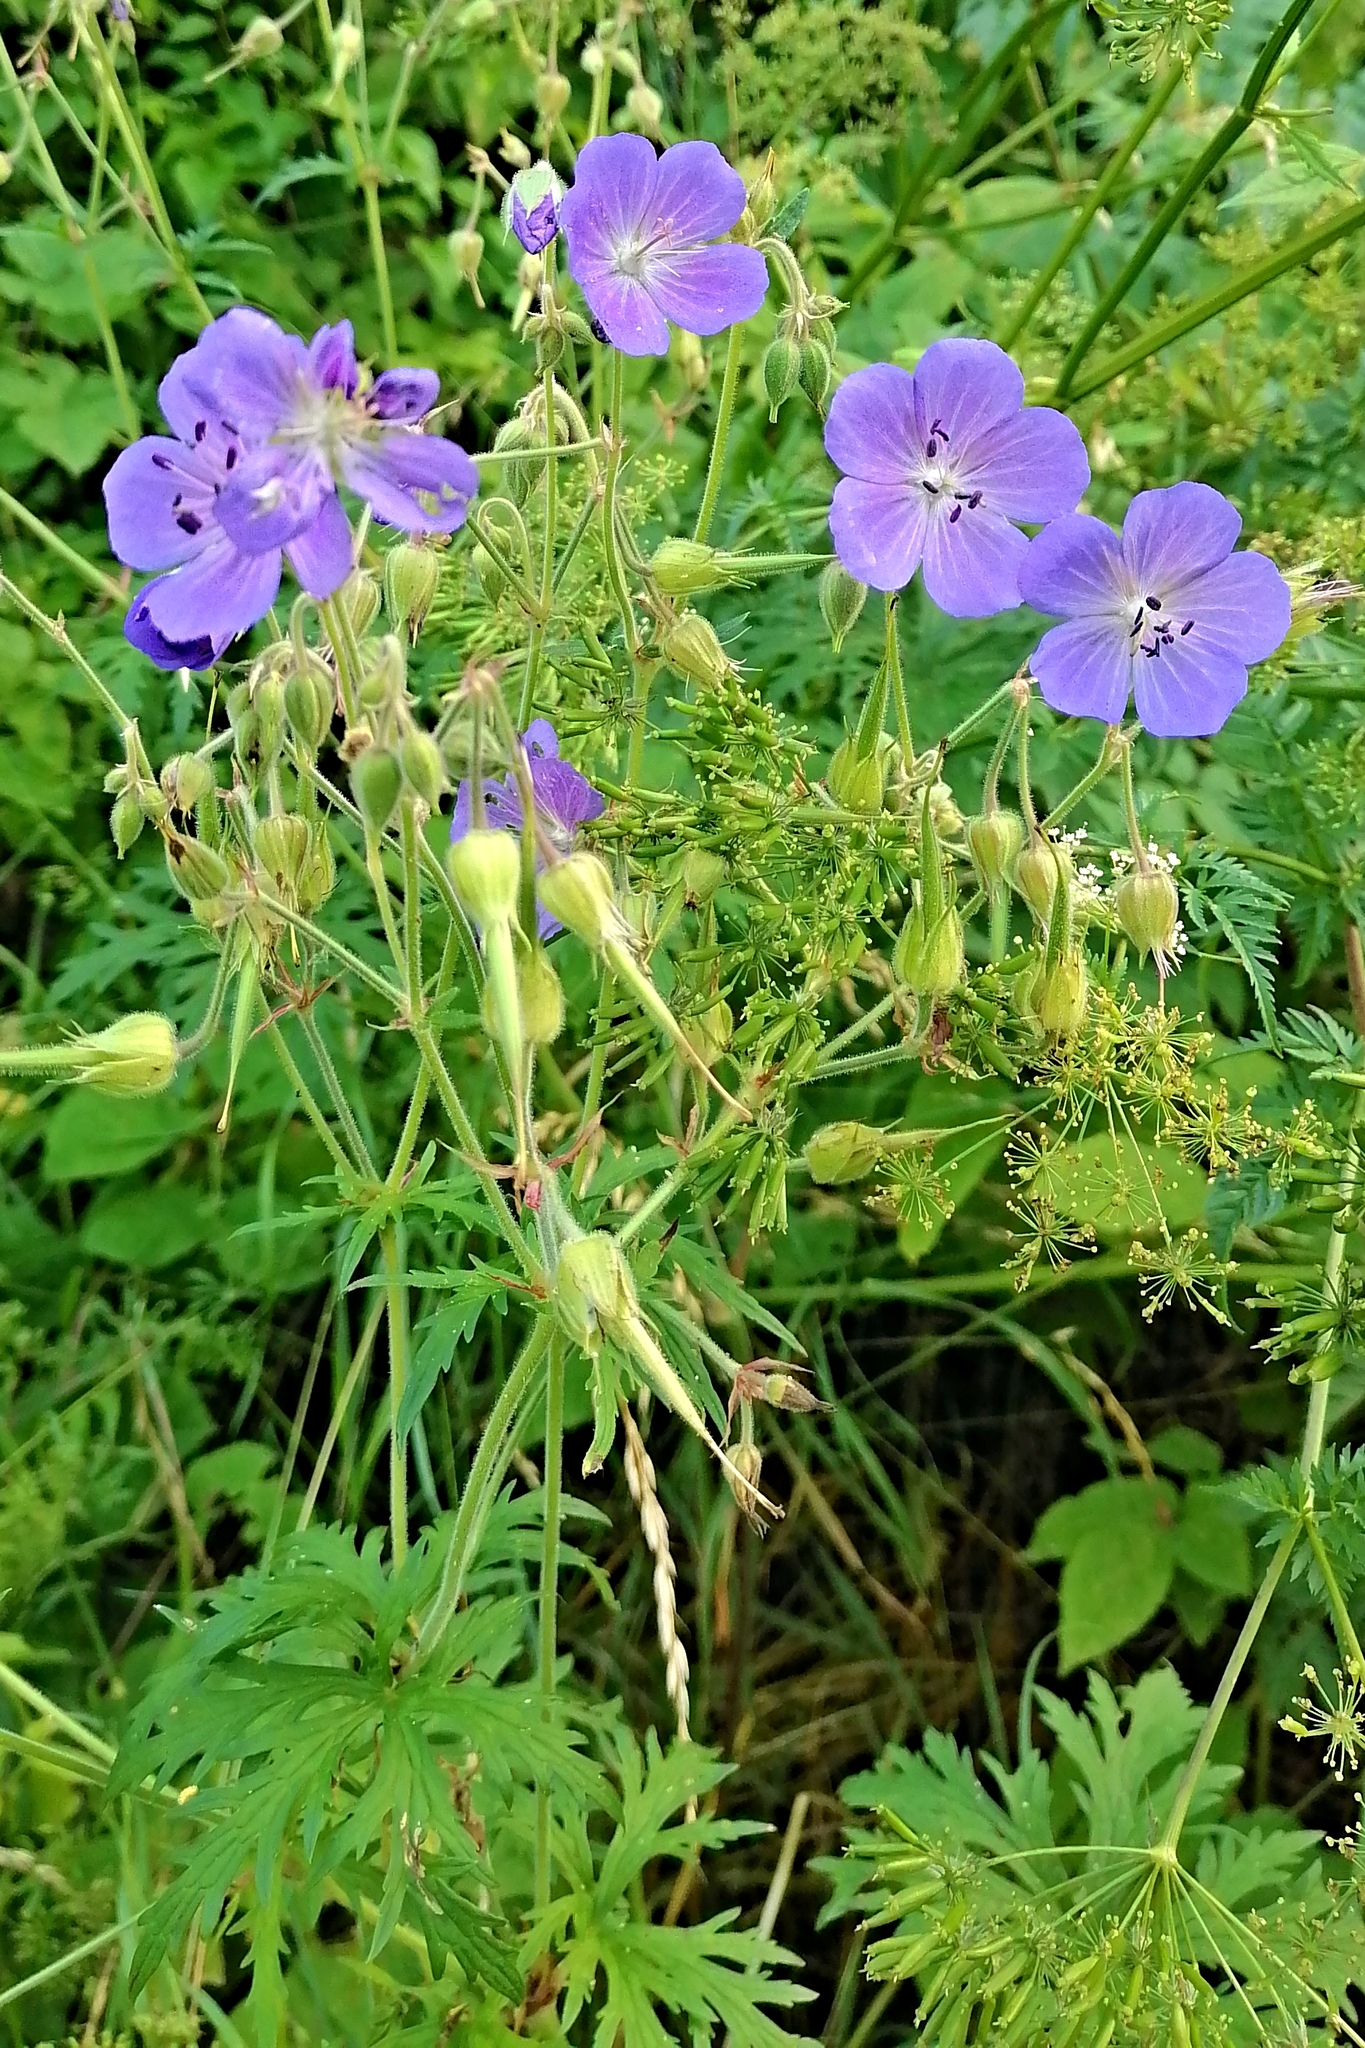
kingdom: Plantae
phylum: Tracheophyta
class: Magnoliopsida
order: Geraniales
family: Geraniaceae
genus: Geranium
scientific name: Geranium pratense
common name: Meadow crane's-bill
